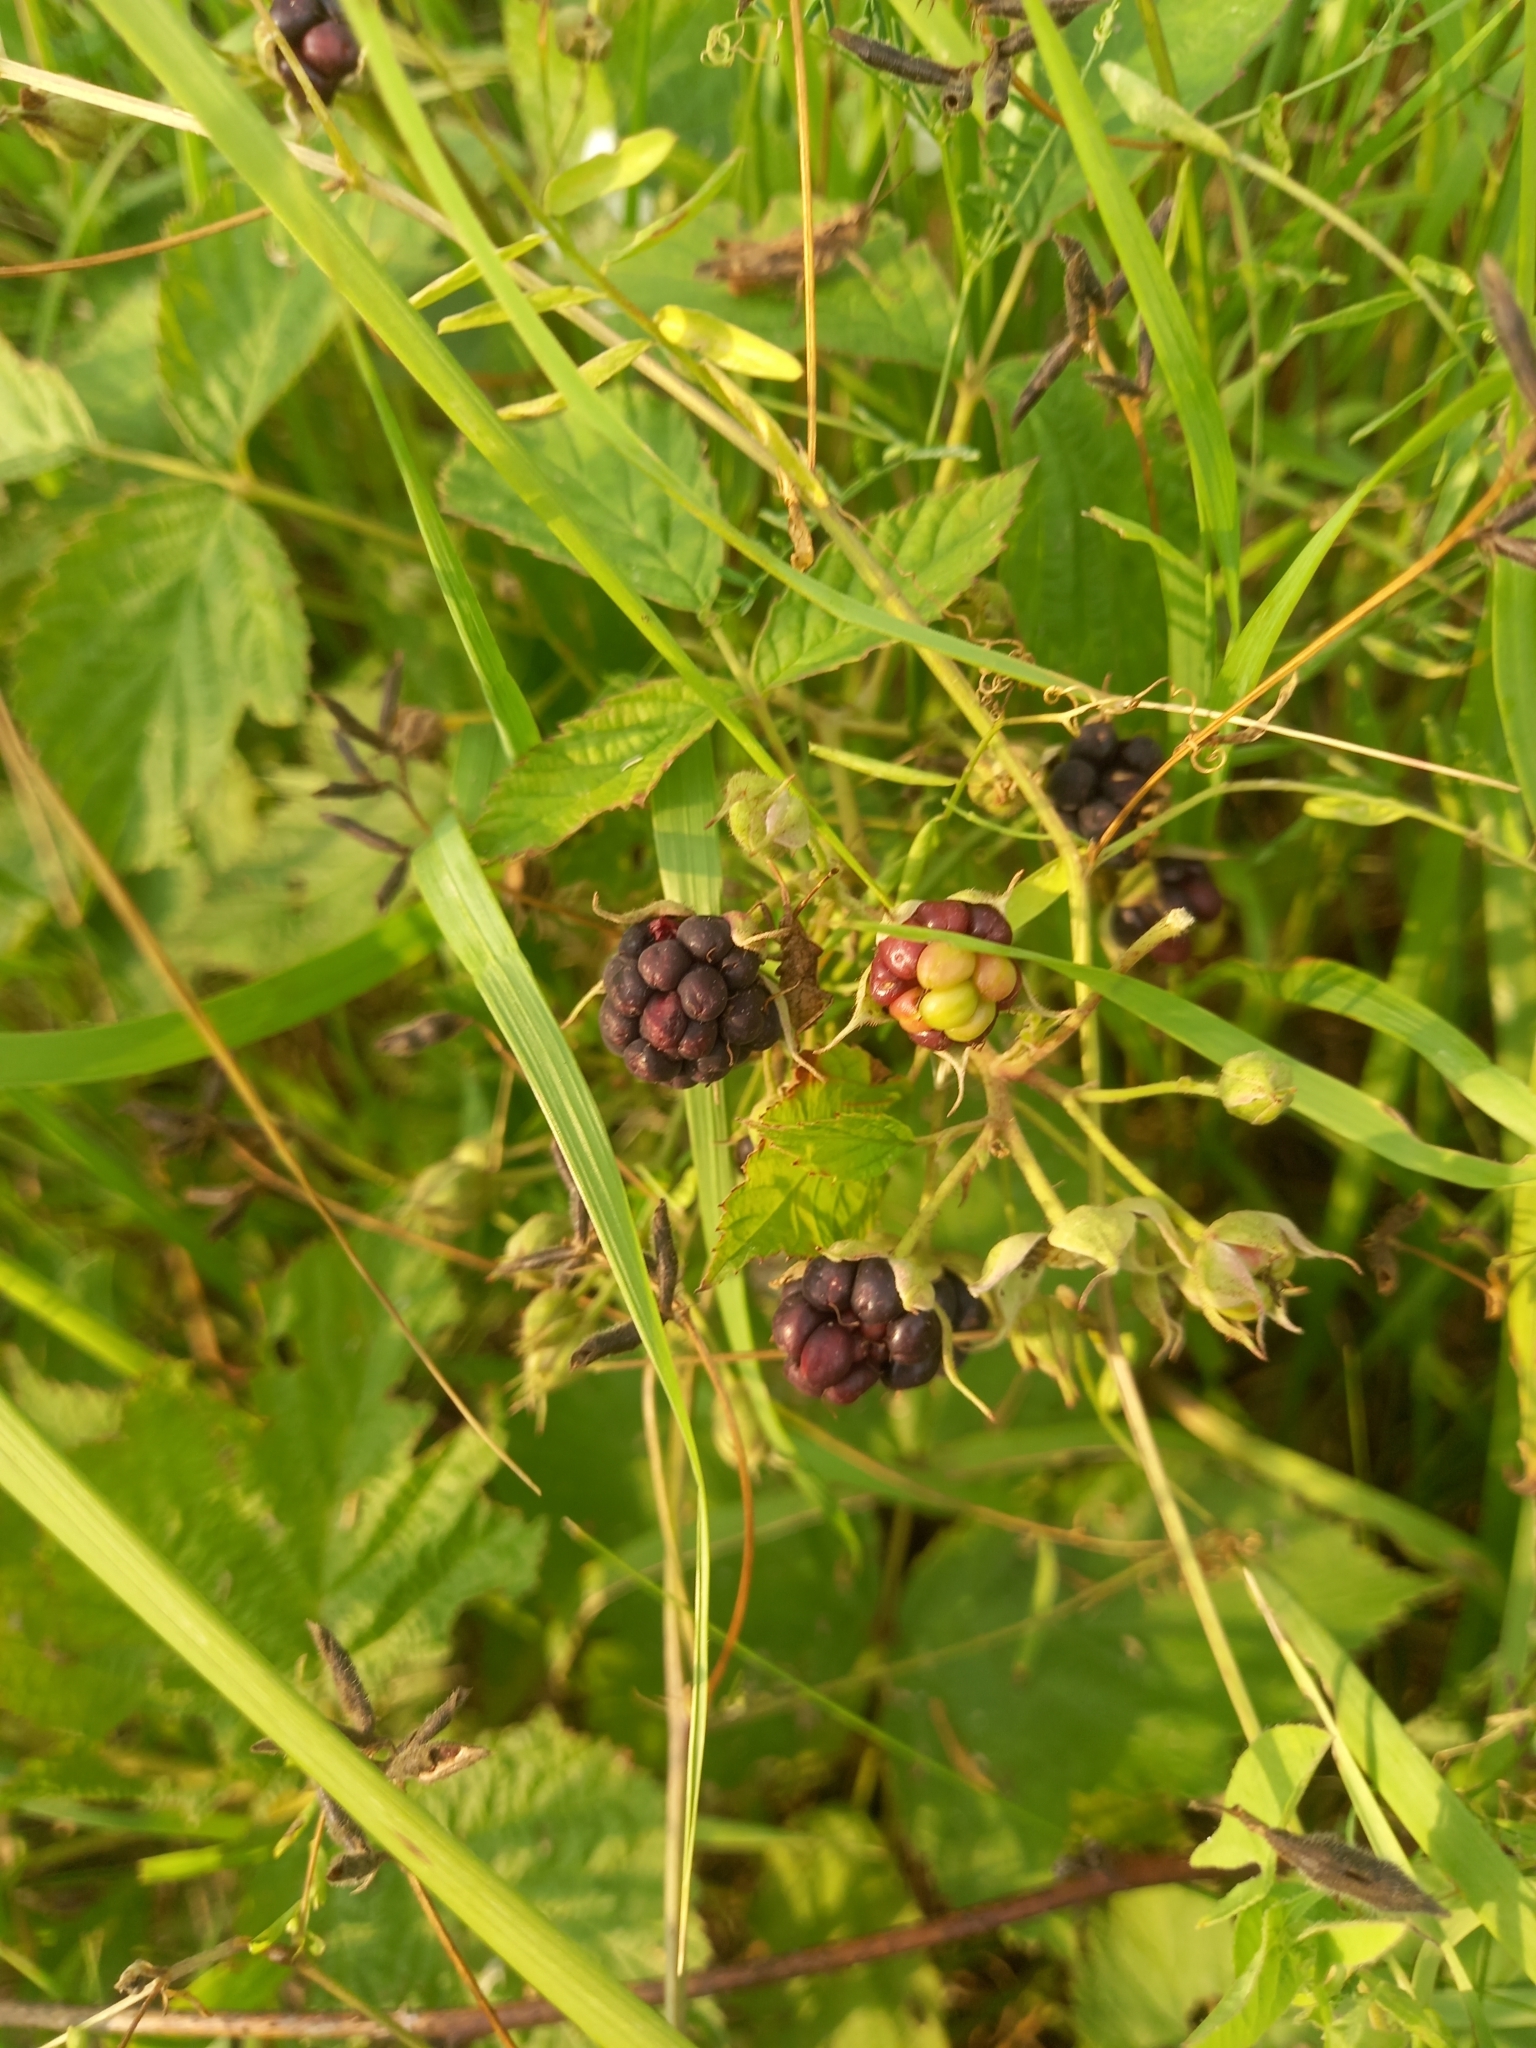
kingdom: Plantae
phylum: Tracheophyta
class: Magnoliopsida
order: Rosales
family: Rosaceae
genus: Rubus
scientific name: Rubus caesius
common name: Dewberry
